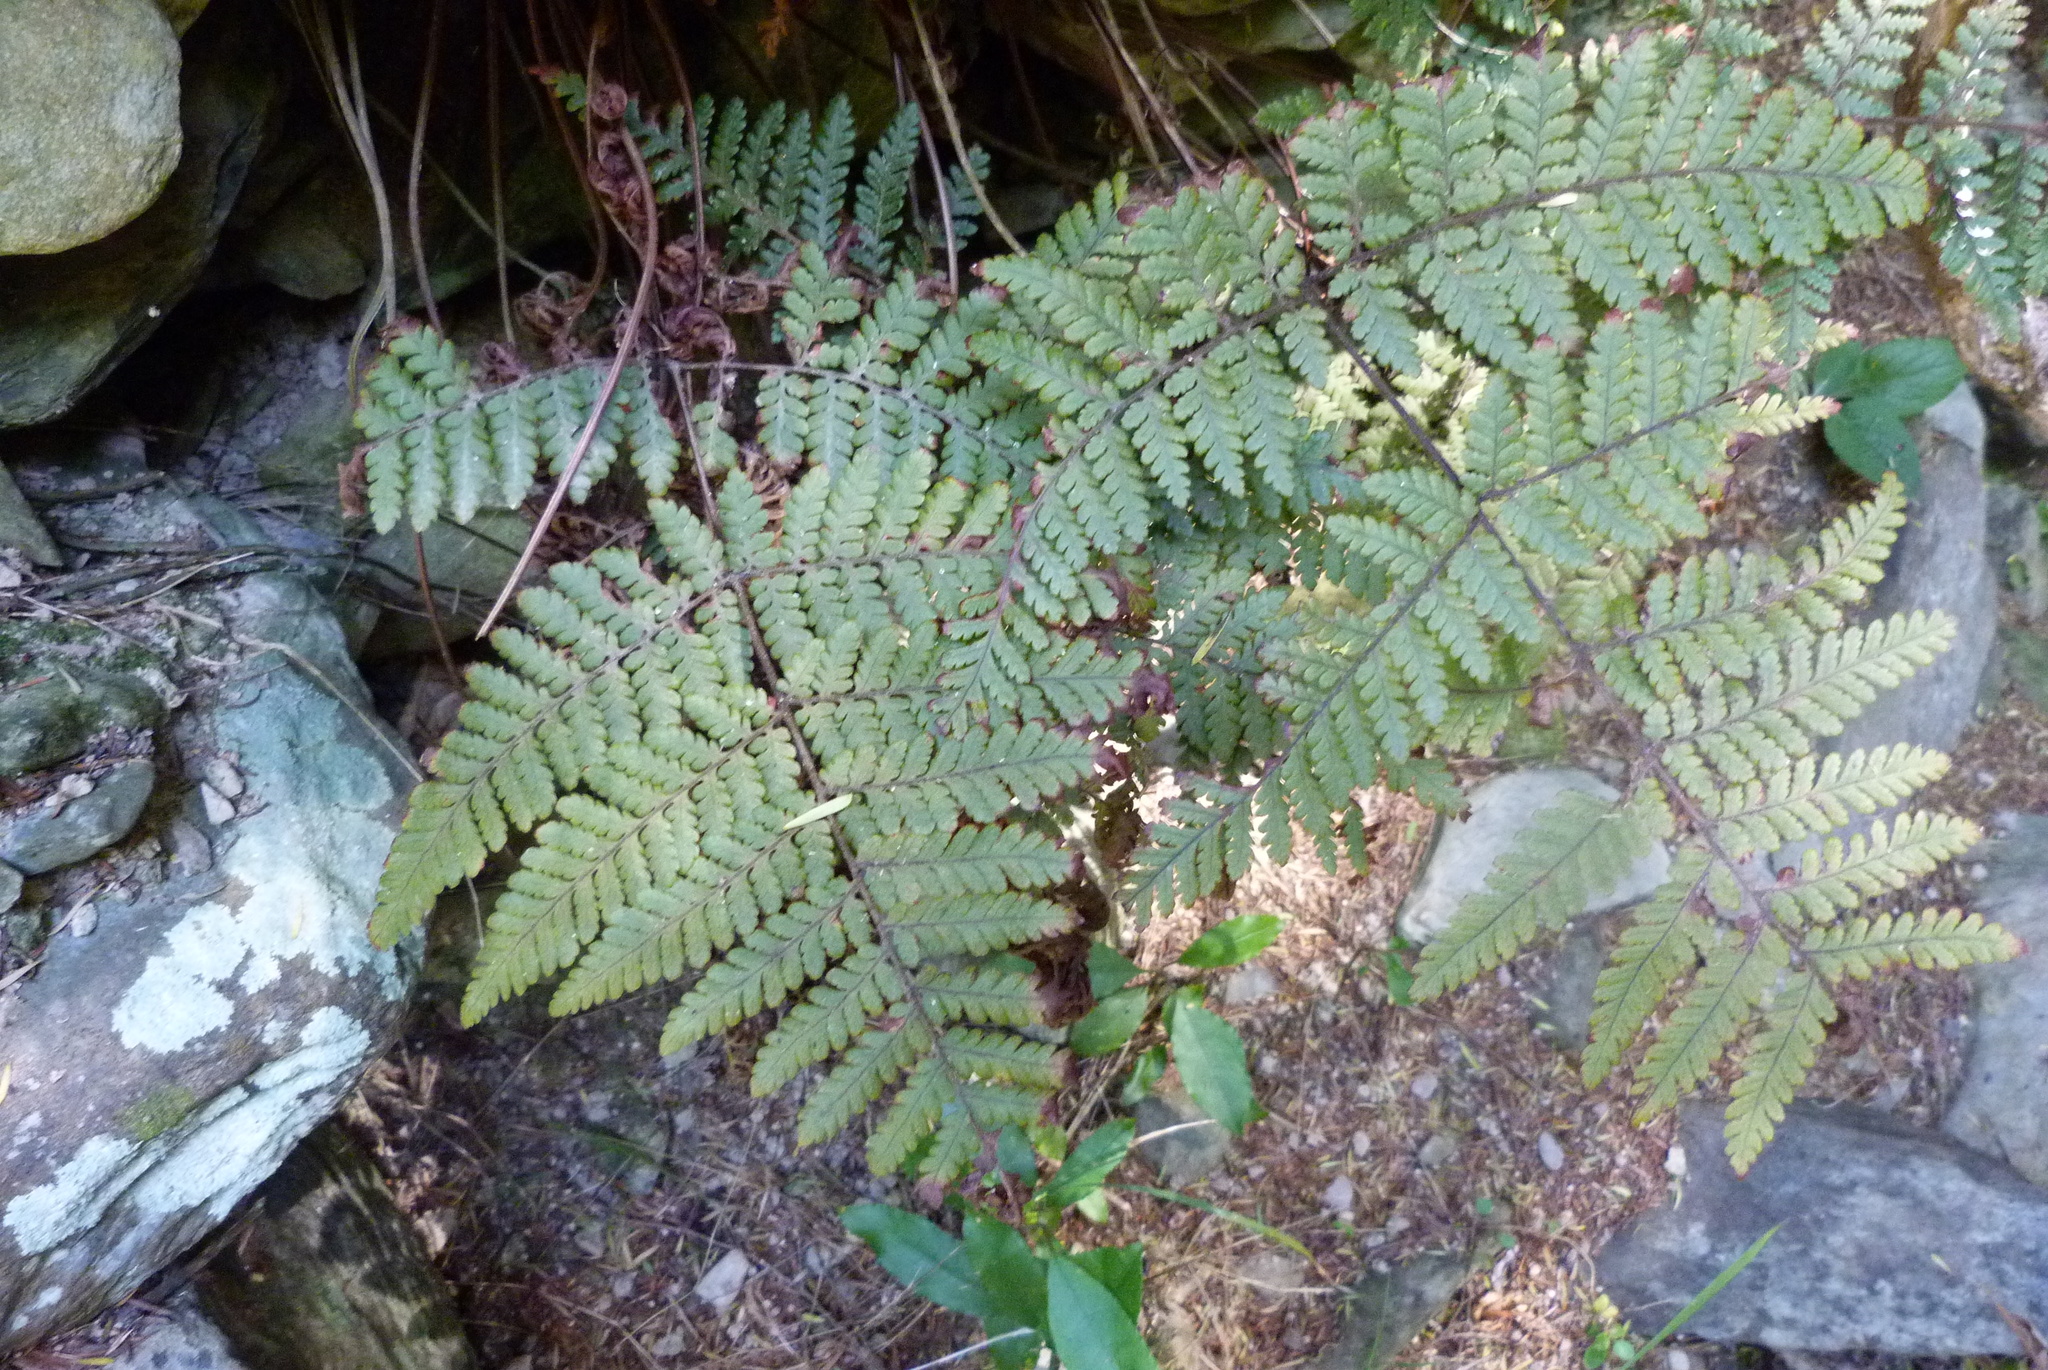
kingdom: Plantae
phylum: Tracheophyta
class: Polypodiopsida
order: Polypodiales
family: Dryopteridaceae
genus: Lastreopsis
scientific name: Lastreopsis velutina
